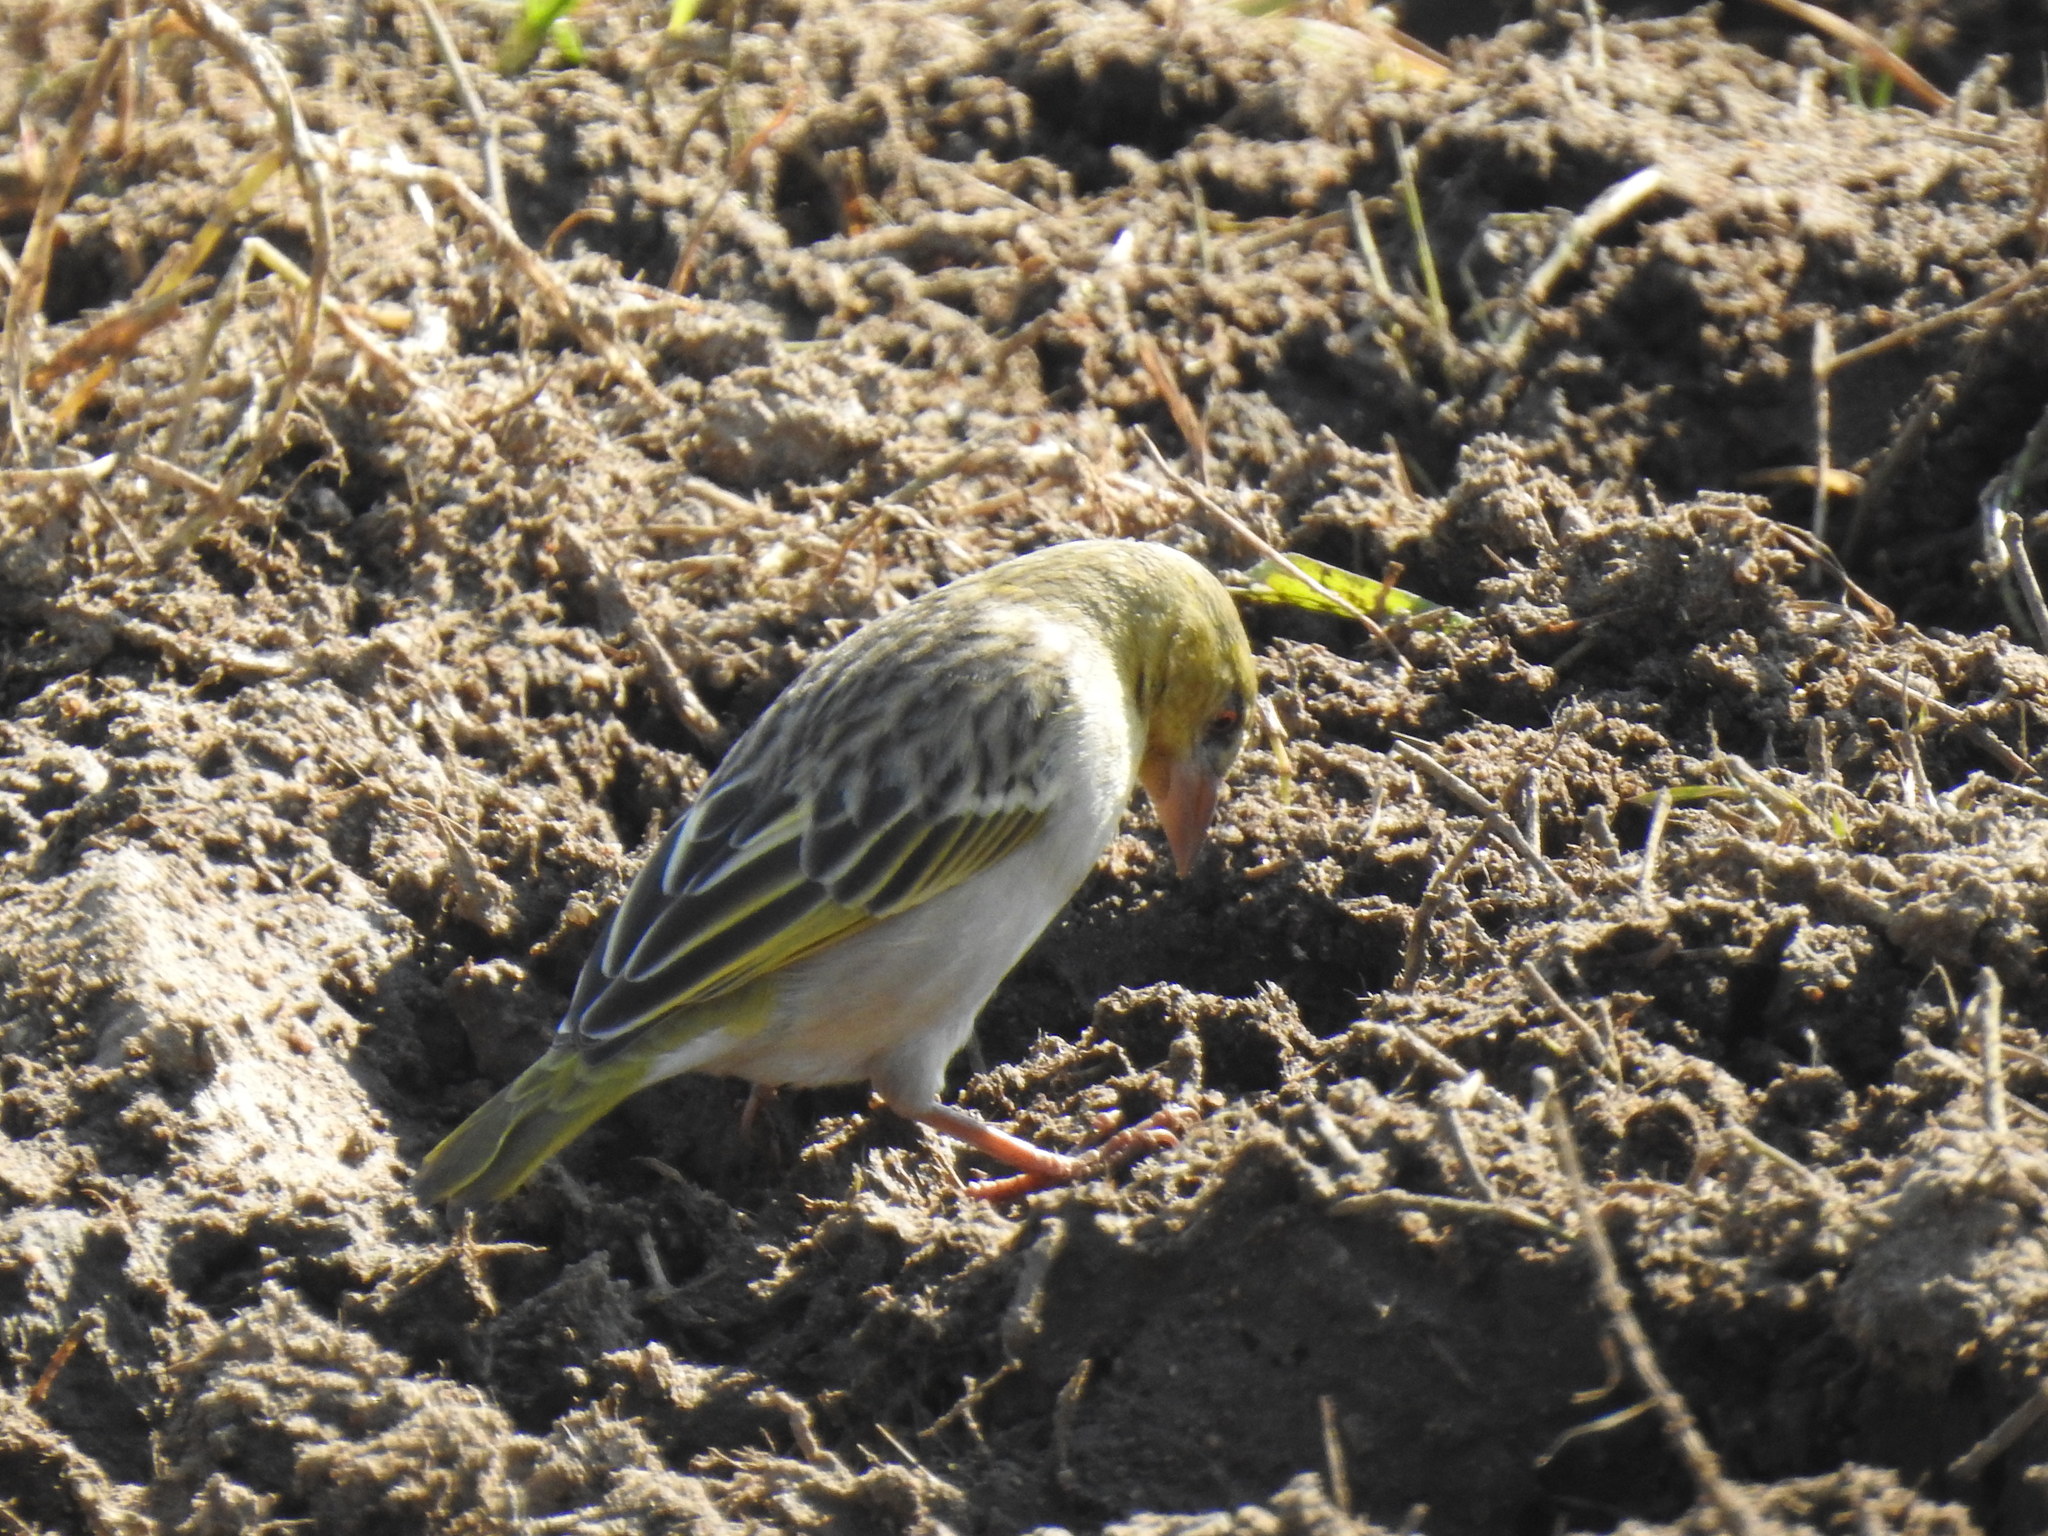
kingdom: Animalia
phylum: Chordata
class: Aves
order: Passeriformes
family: Ploceidae
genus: Ploceus
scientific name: Ploceus cucullatus
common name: Village weaver
